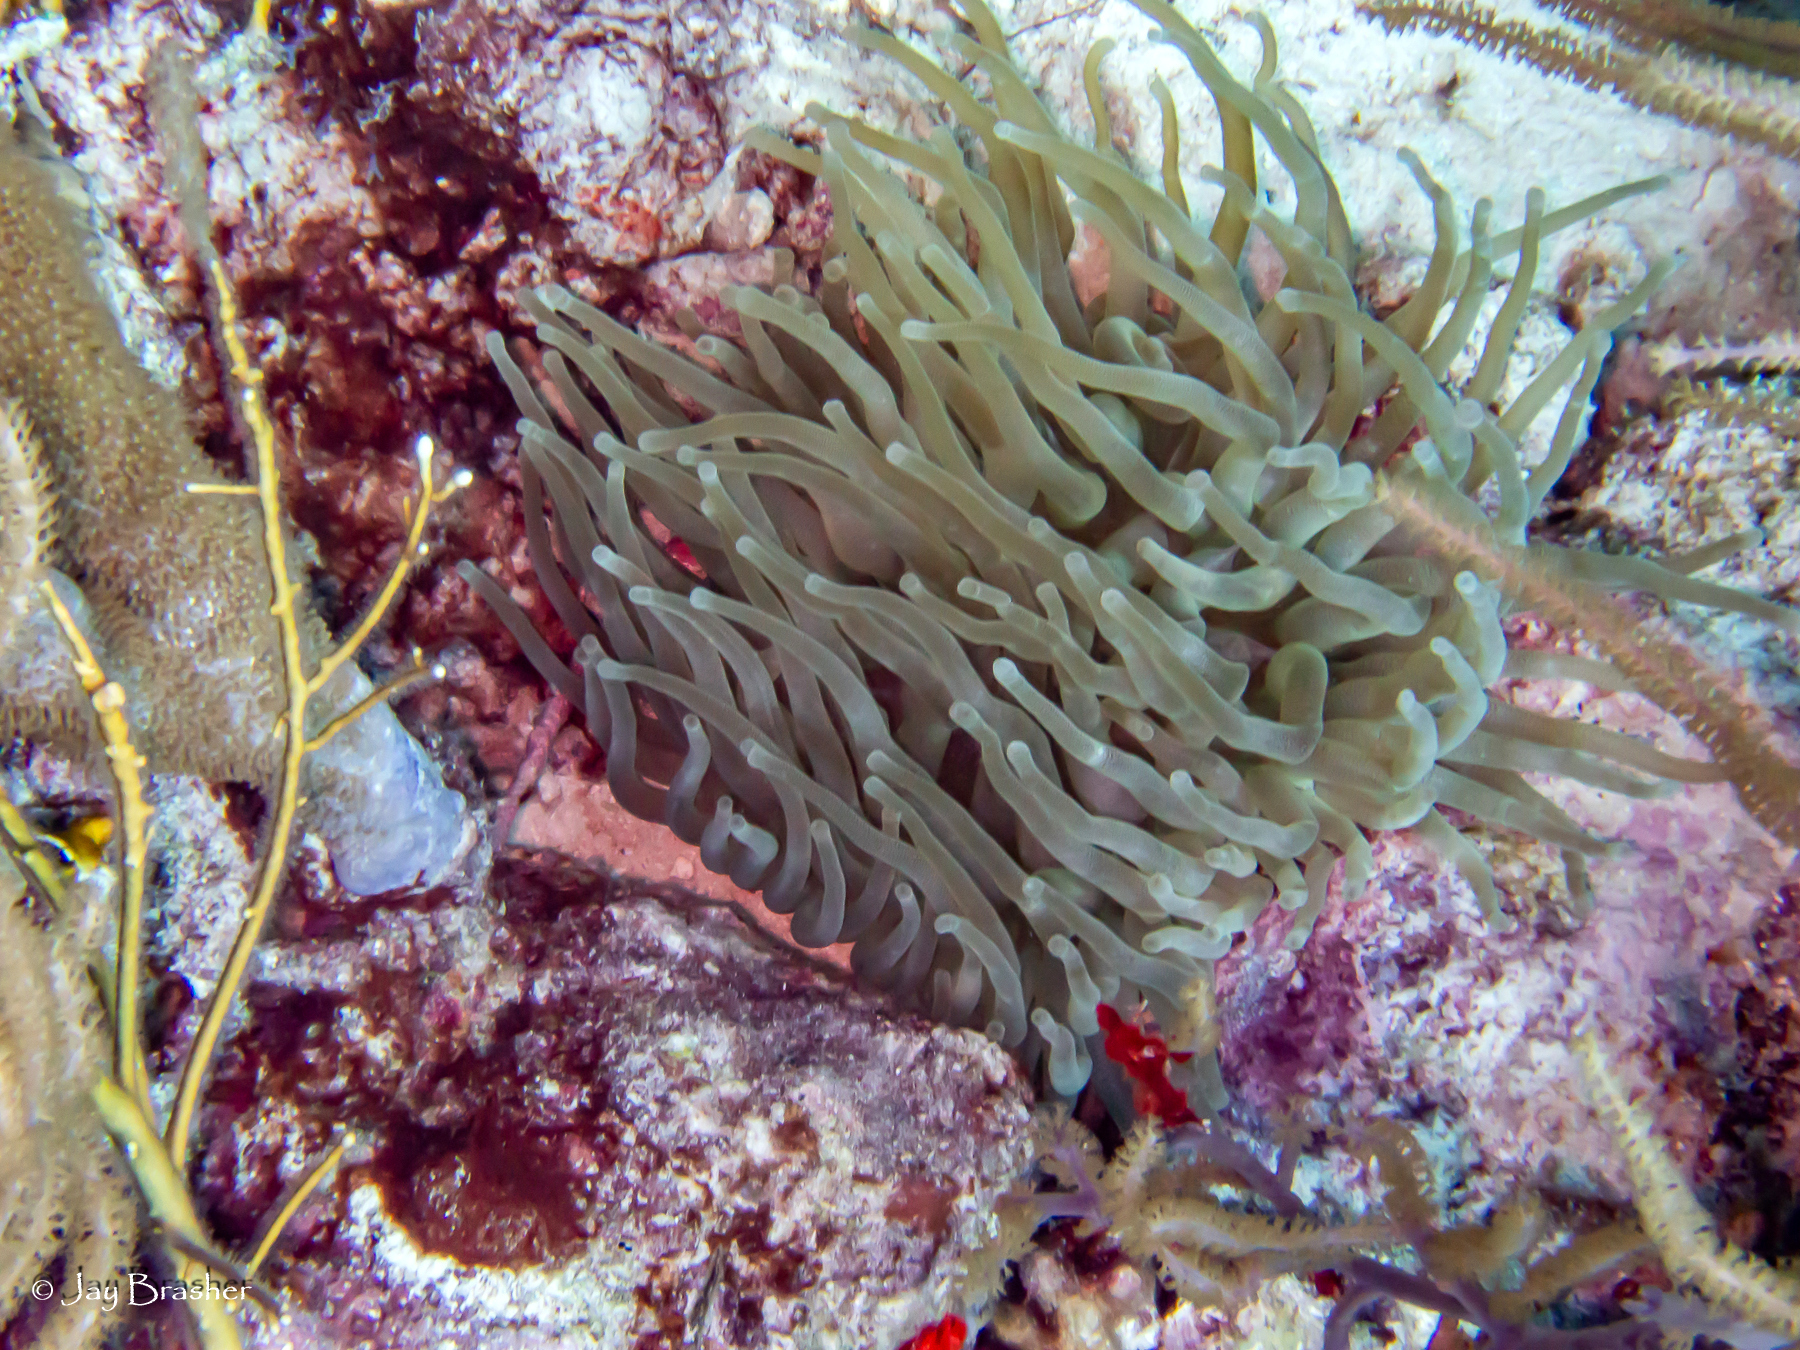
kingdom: Animalia
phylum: Cnidaria
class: Anthozoa
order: Actiniaria
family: Actiniidae
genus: Condylactis
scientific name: Condylactis gigantea
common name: Giant caribbean anemone
